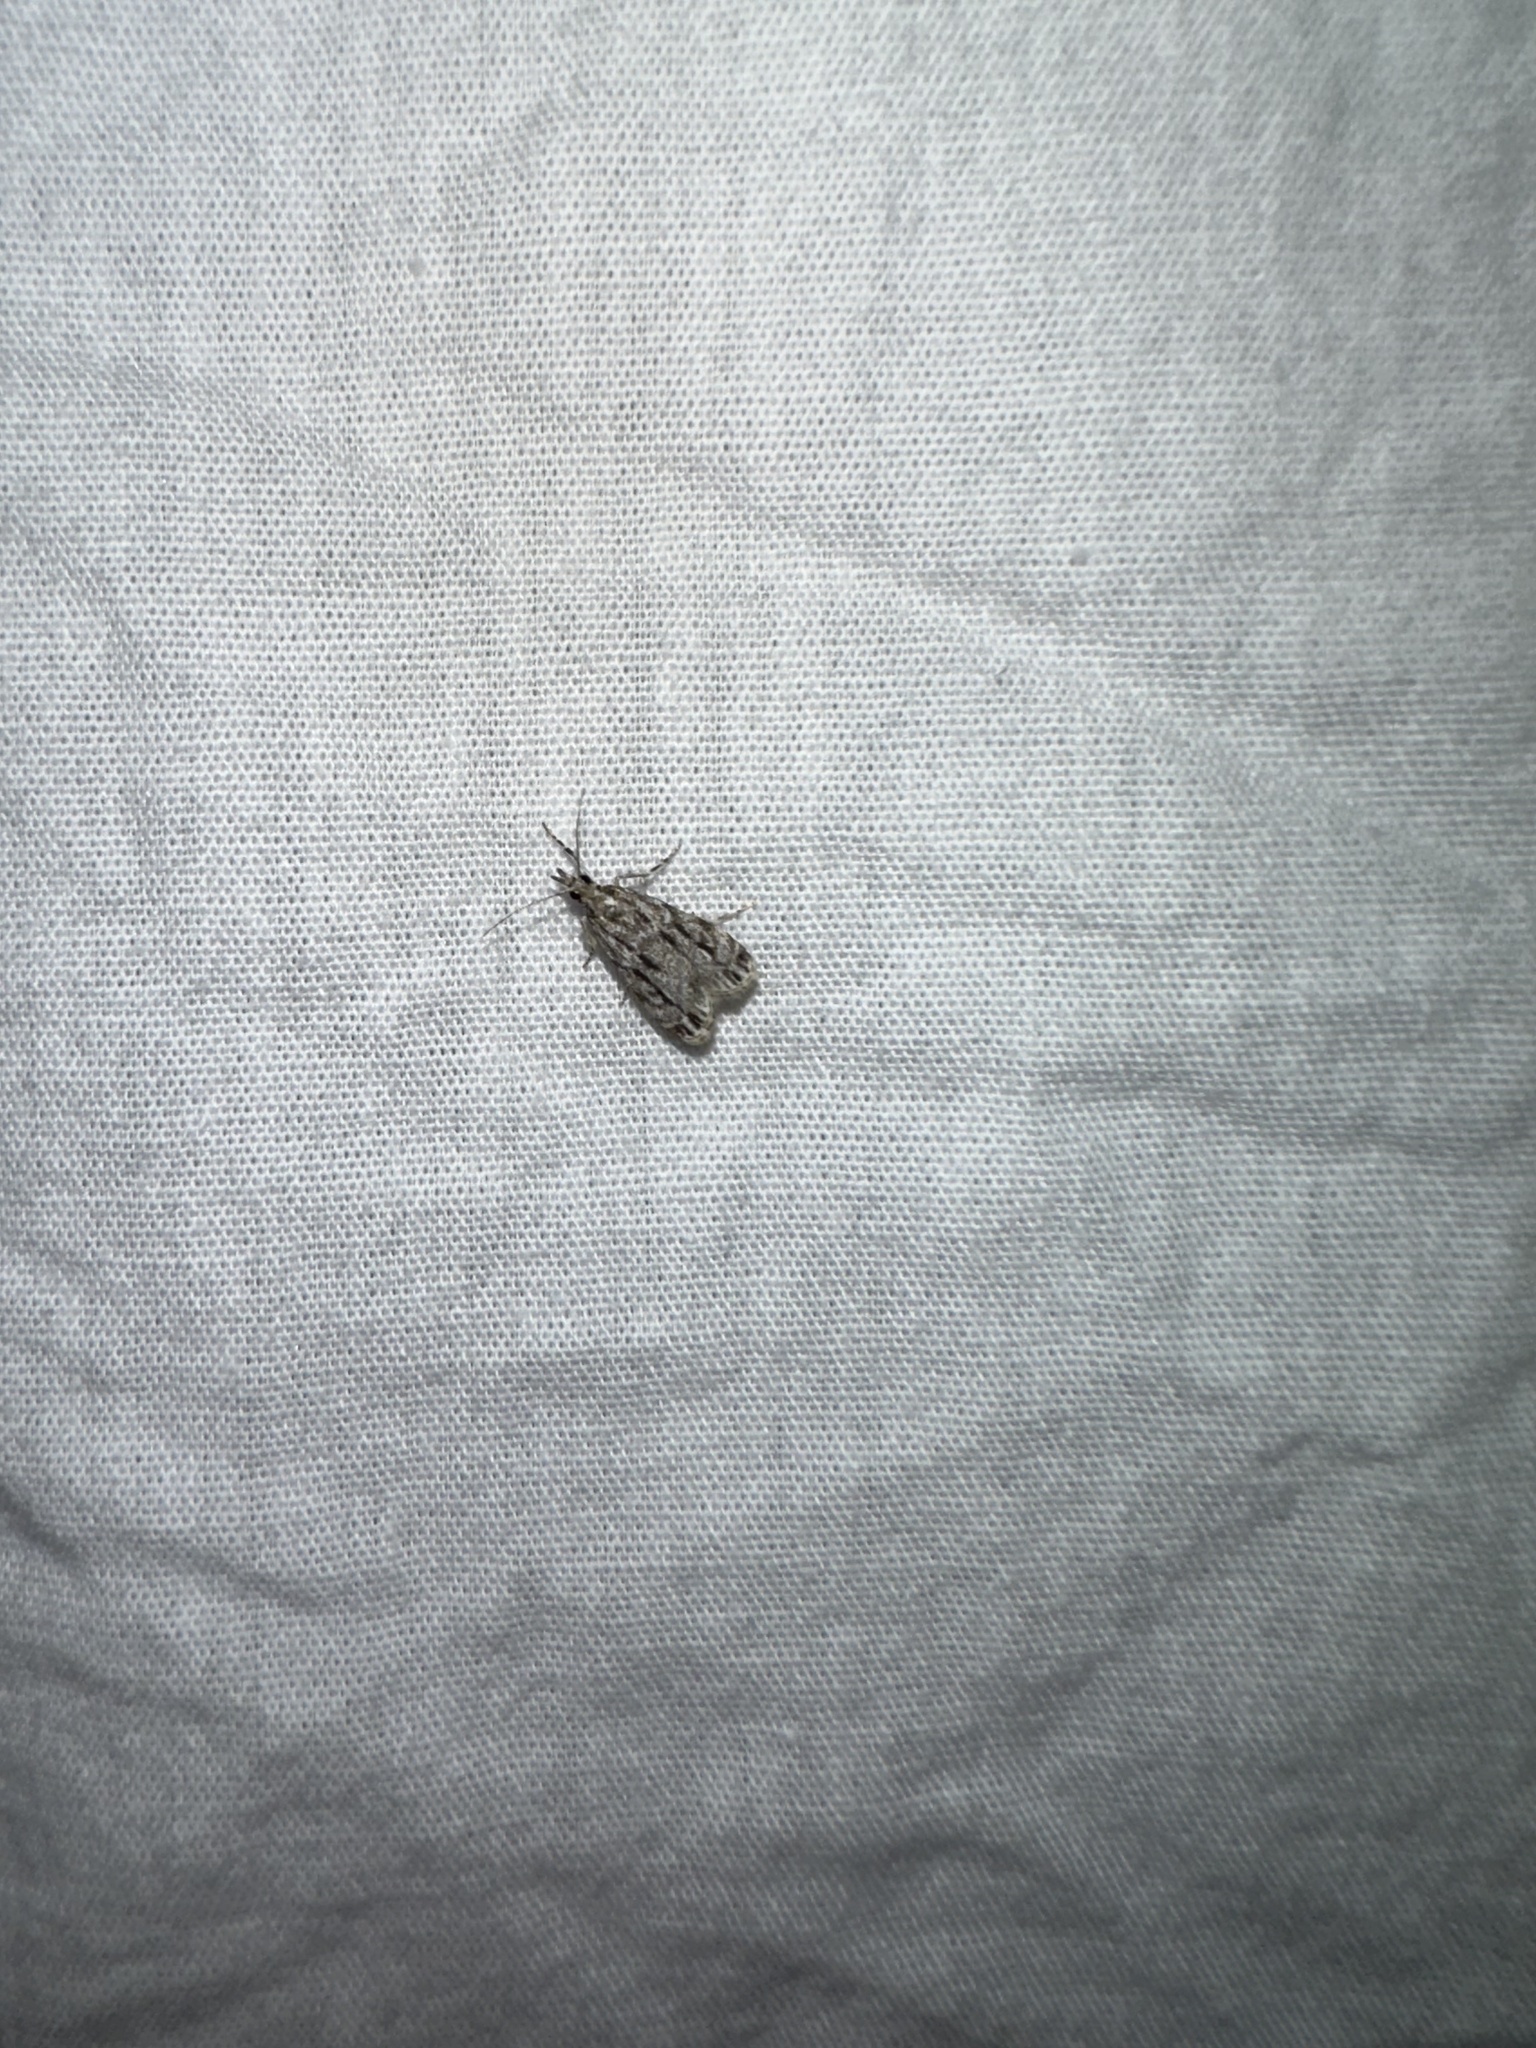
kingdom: Animalia
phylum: Arthropoda
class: Insecta
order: Lepidoptera
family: Crambidae
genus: Eudonia
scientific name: Eudonia strigalis
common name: Striped eudonia moth
